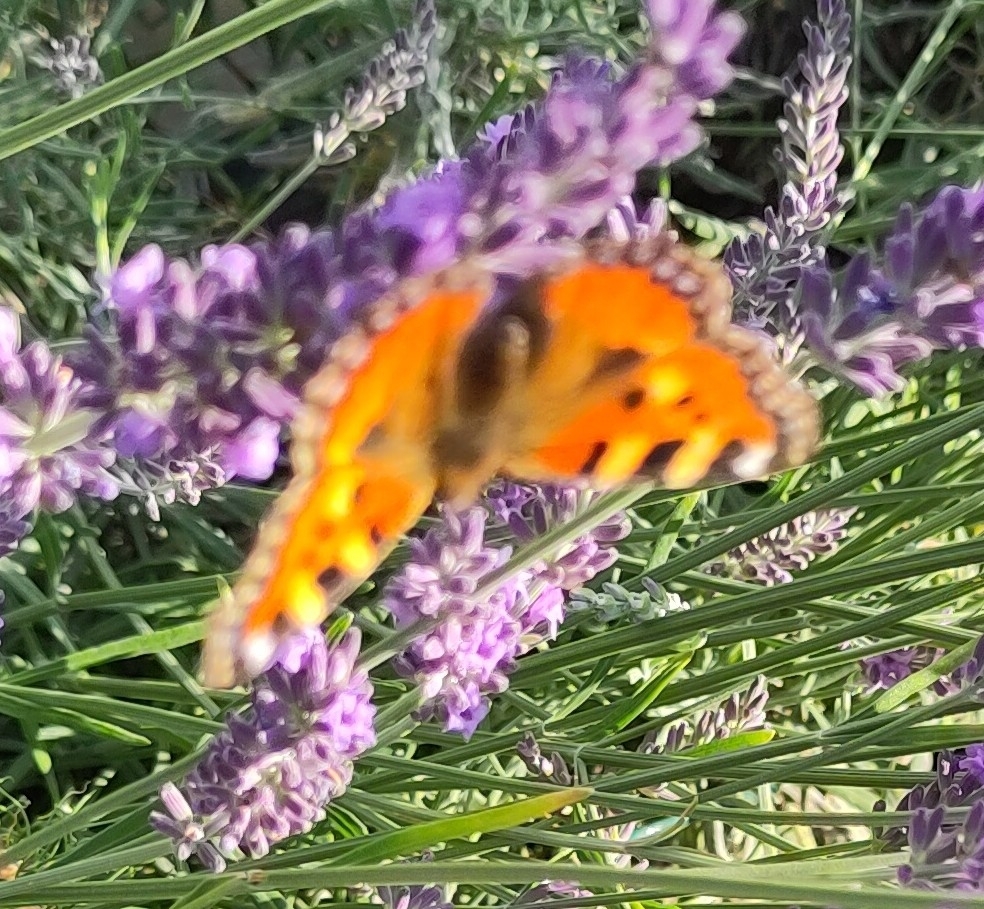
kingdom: Animalia
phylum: Arthropoda
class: Insecta
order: Lepidoptera
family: Nymphalidae
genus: Aglais
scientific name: Aglais urticae
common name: Small tortoiseshell
